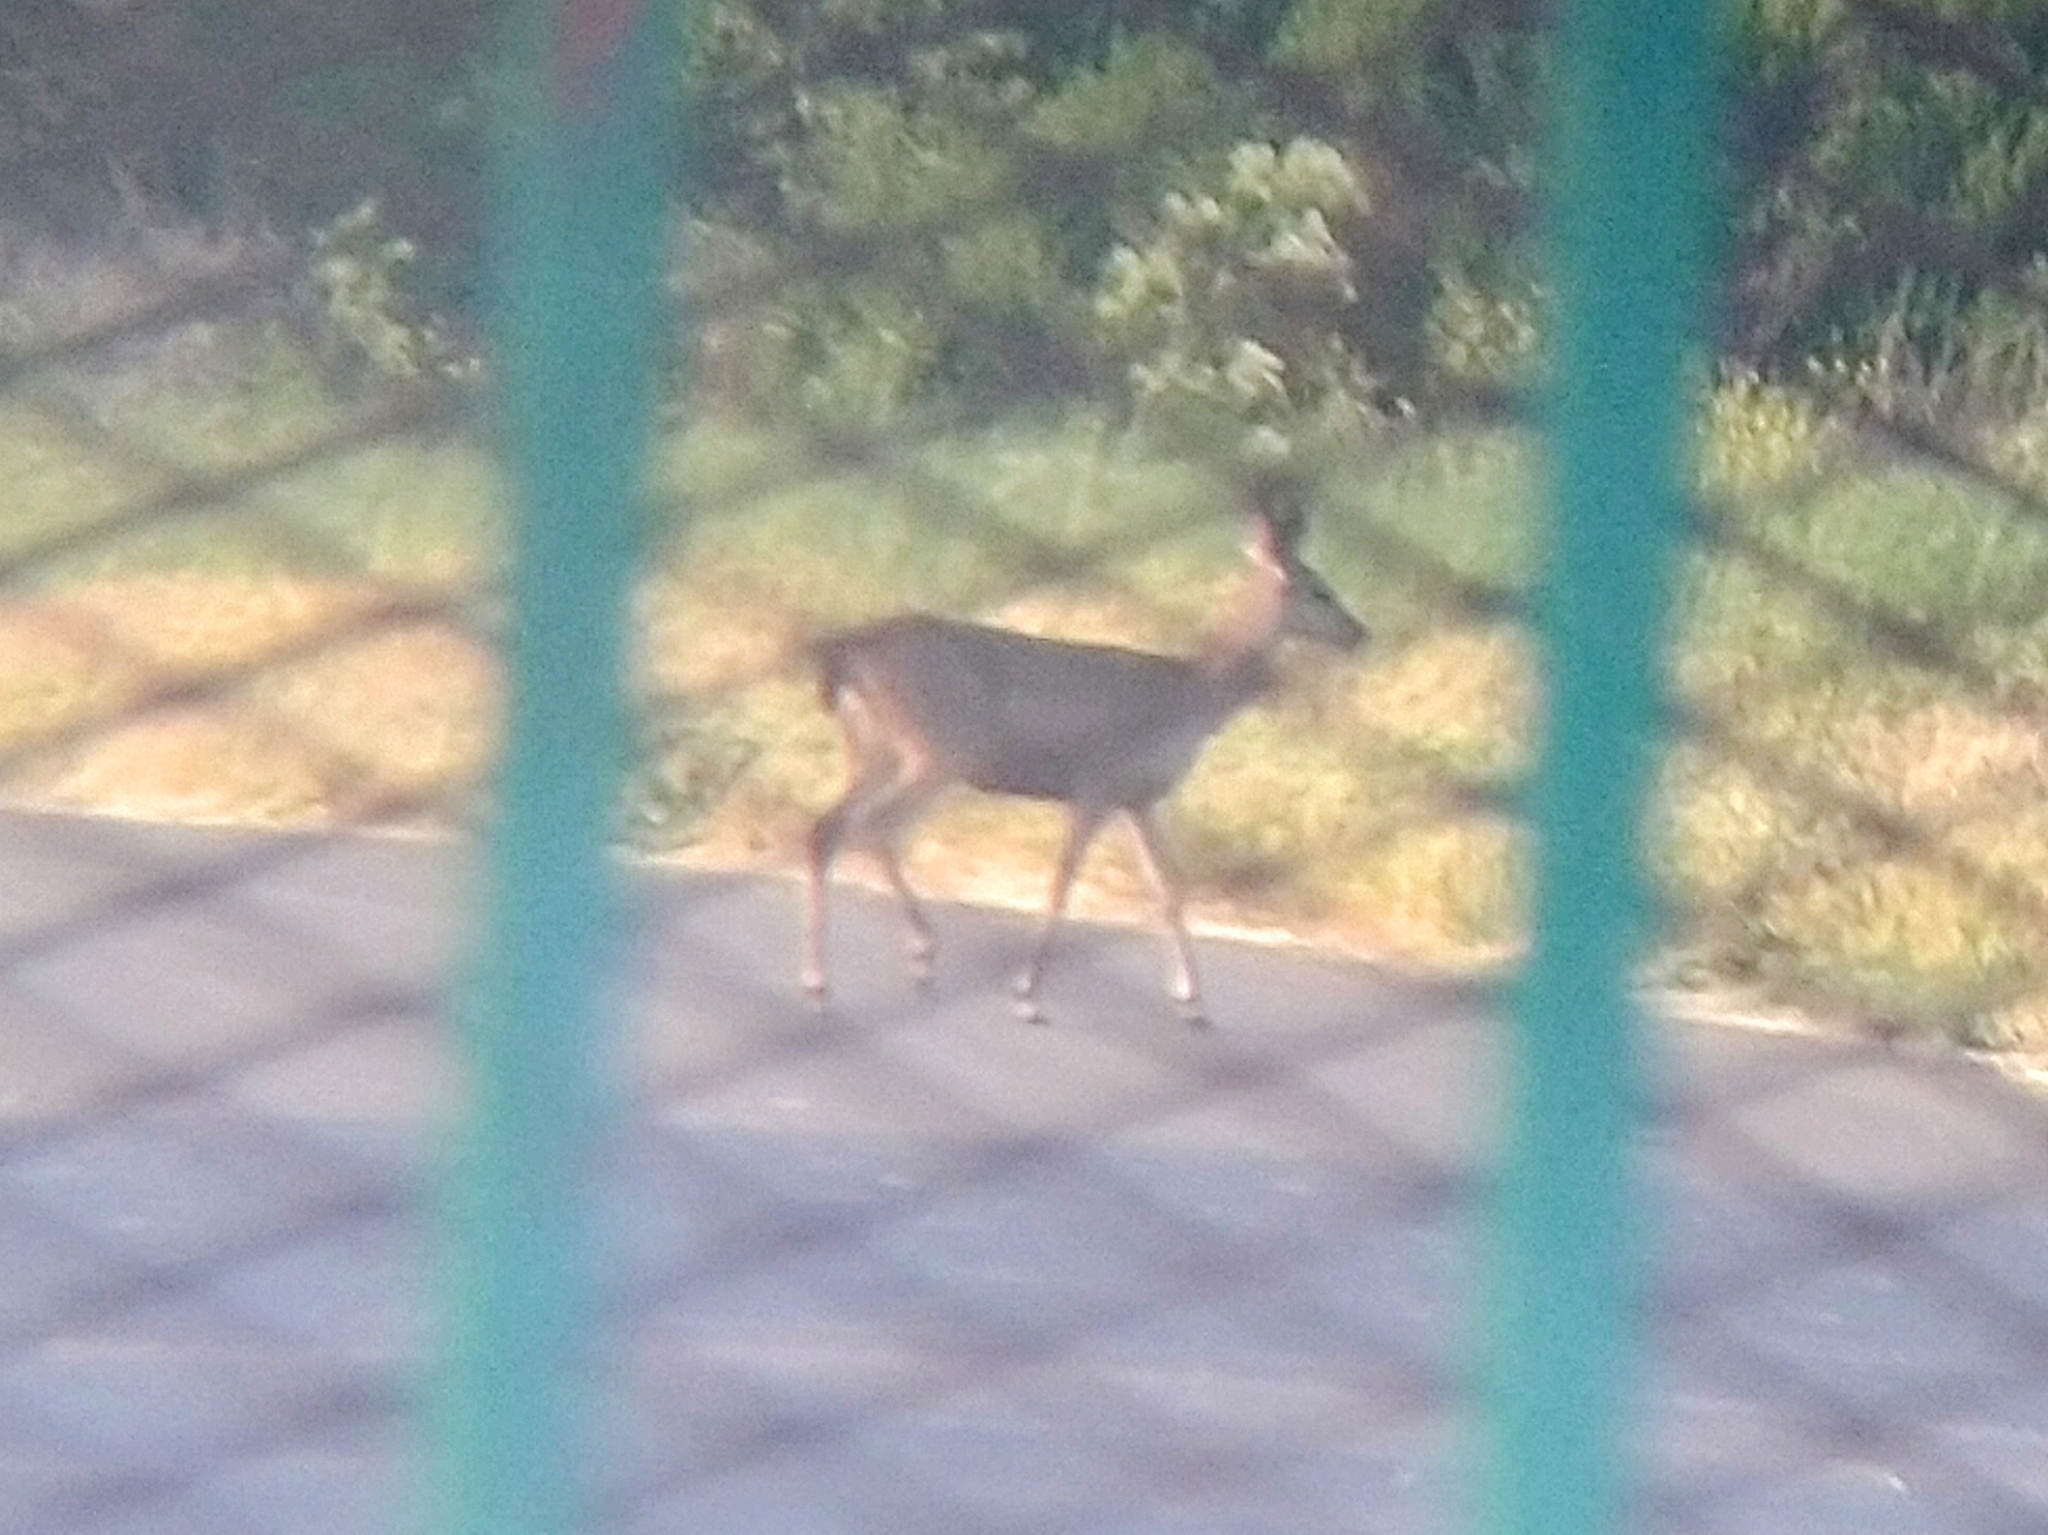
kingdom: Animalia
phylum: Chordata
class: Mammalia
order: Artiodactyla
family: Cervidae
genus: Odocoileus
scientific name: Odocoileus hemionus
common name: Mule deer
